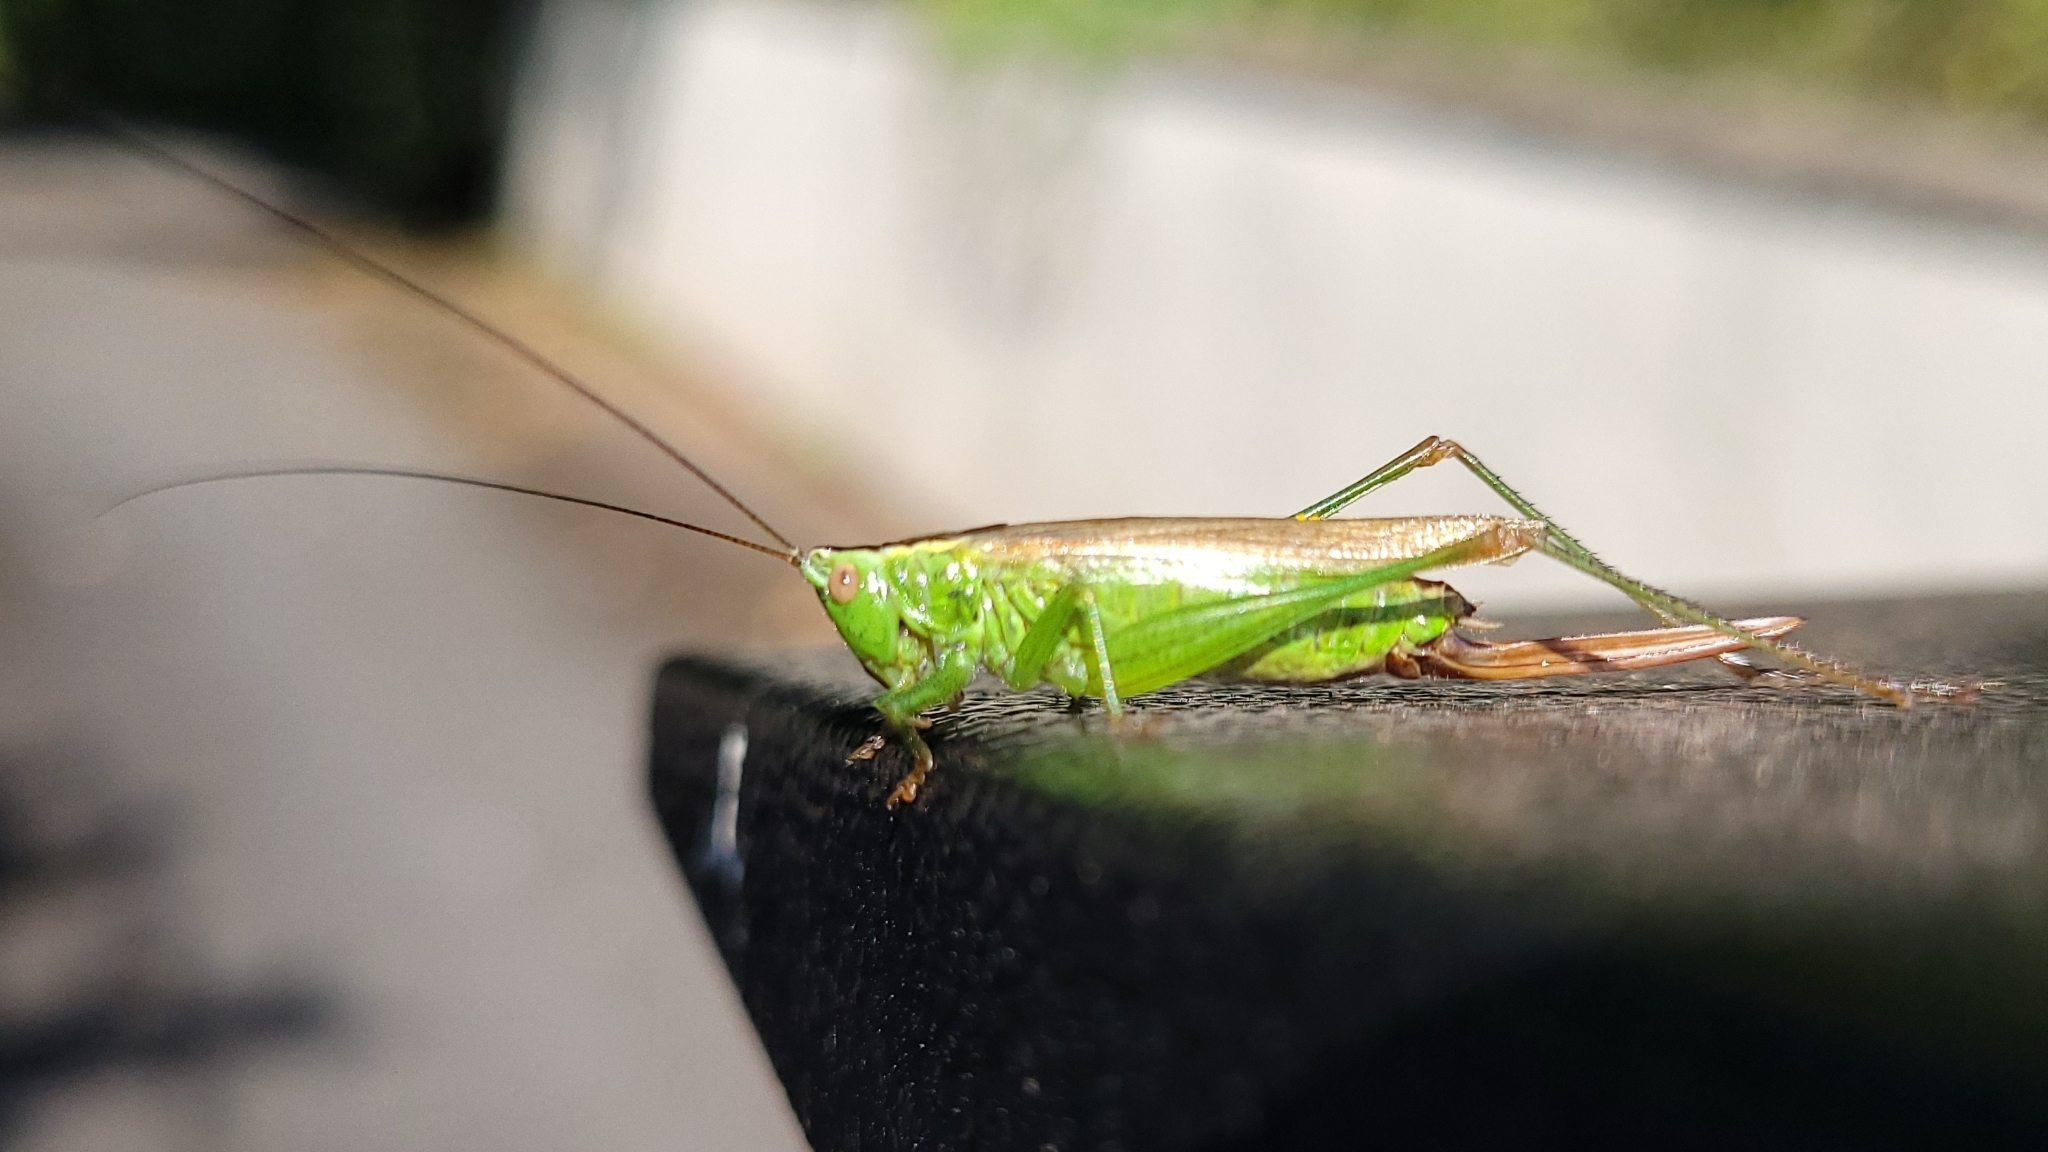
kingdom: Animalia
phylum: Arthropoda
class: Insecta
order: Orthoptera
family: Tettigoniidae
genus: Conocephalus
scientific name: Conocephalus fuscus
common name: Long-winged conehead
